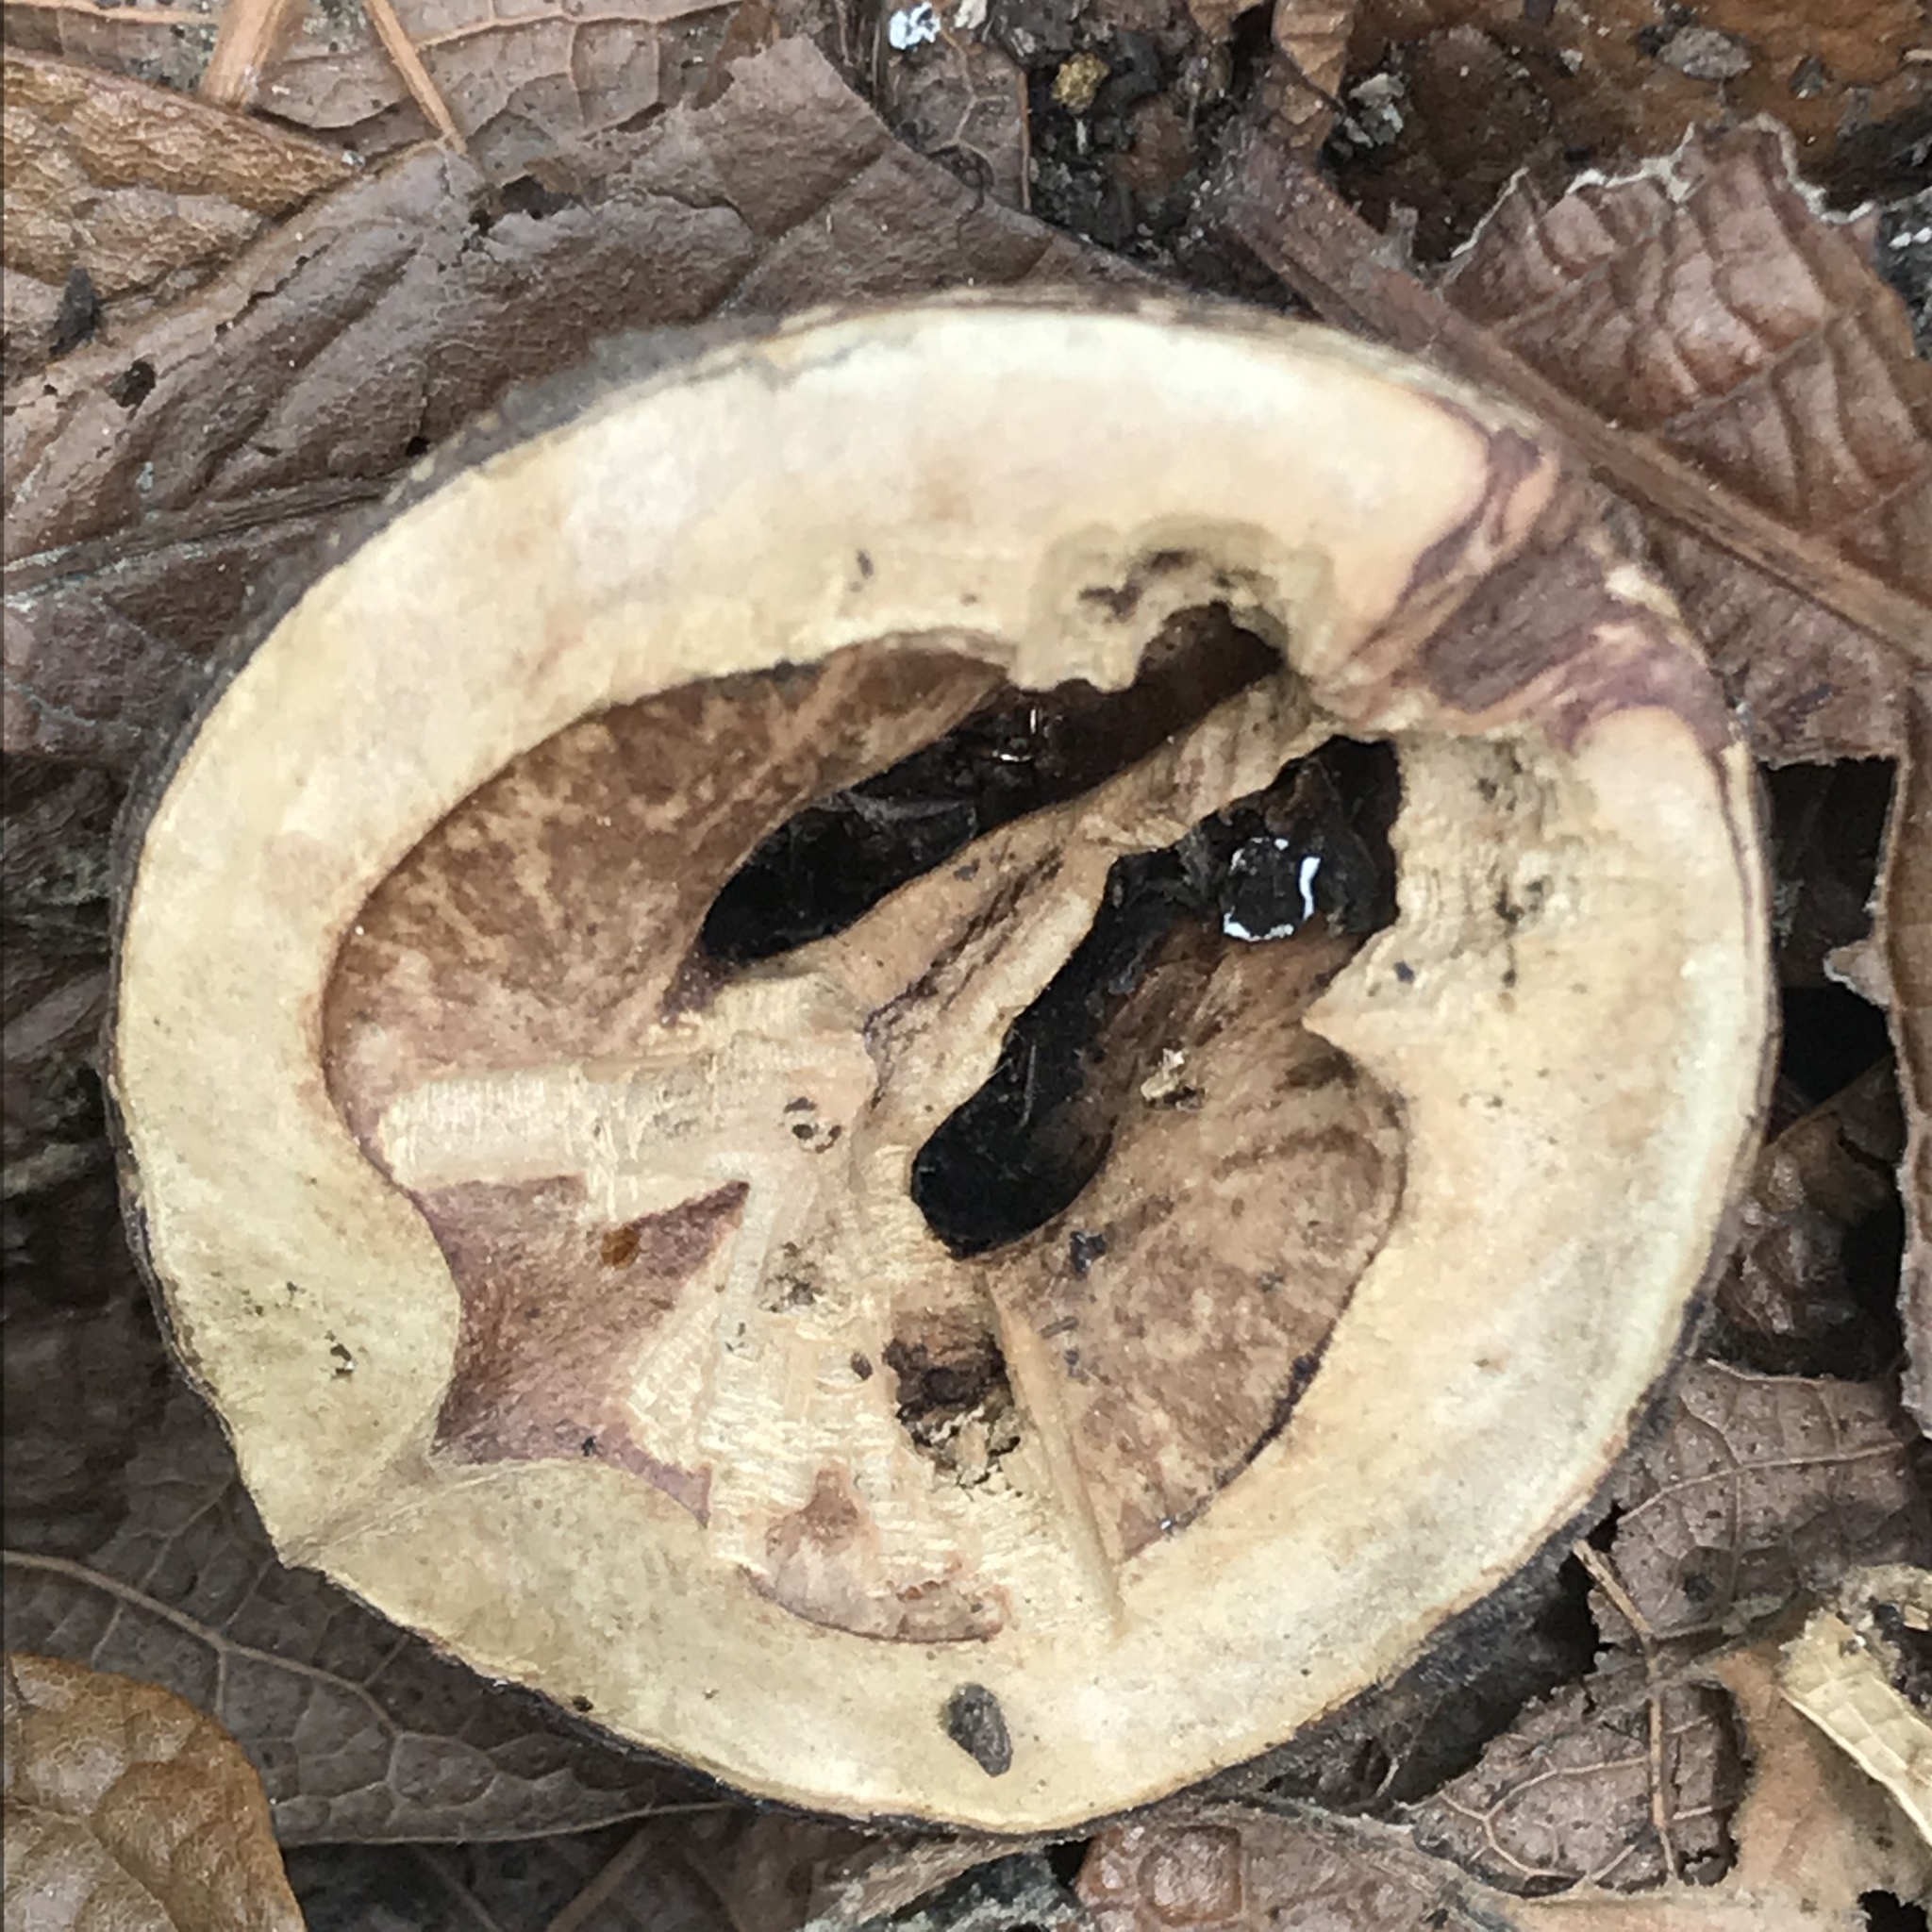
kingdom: Plantae
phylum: Tracheophyta
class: Magnoliopsida
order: Fagales
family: Juglandaceae
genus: Carya
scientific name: Carya ovata
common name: Shagbark hickory
